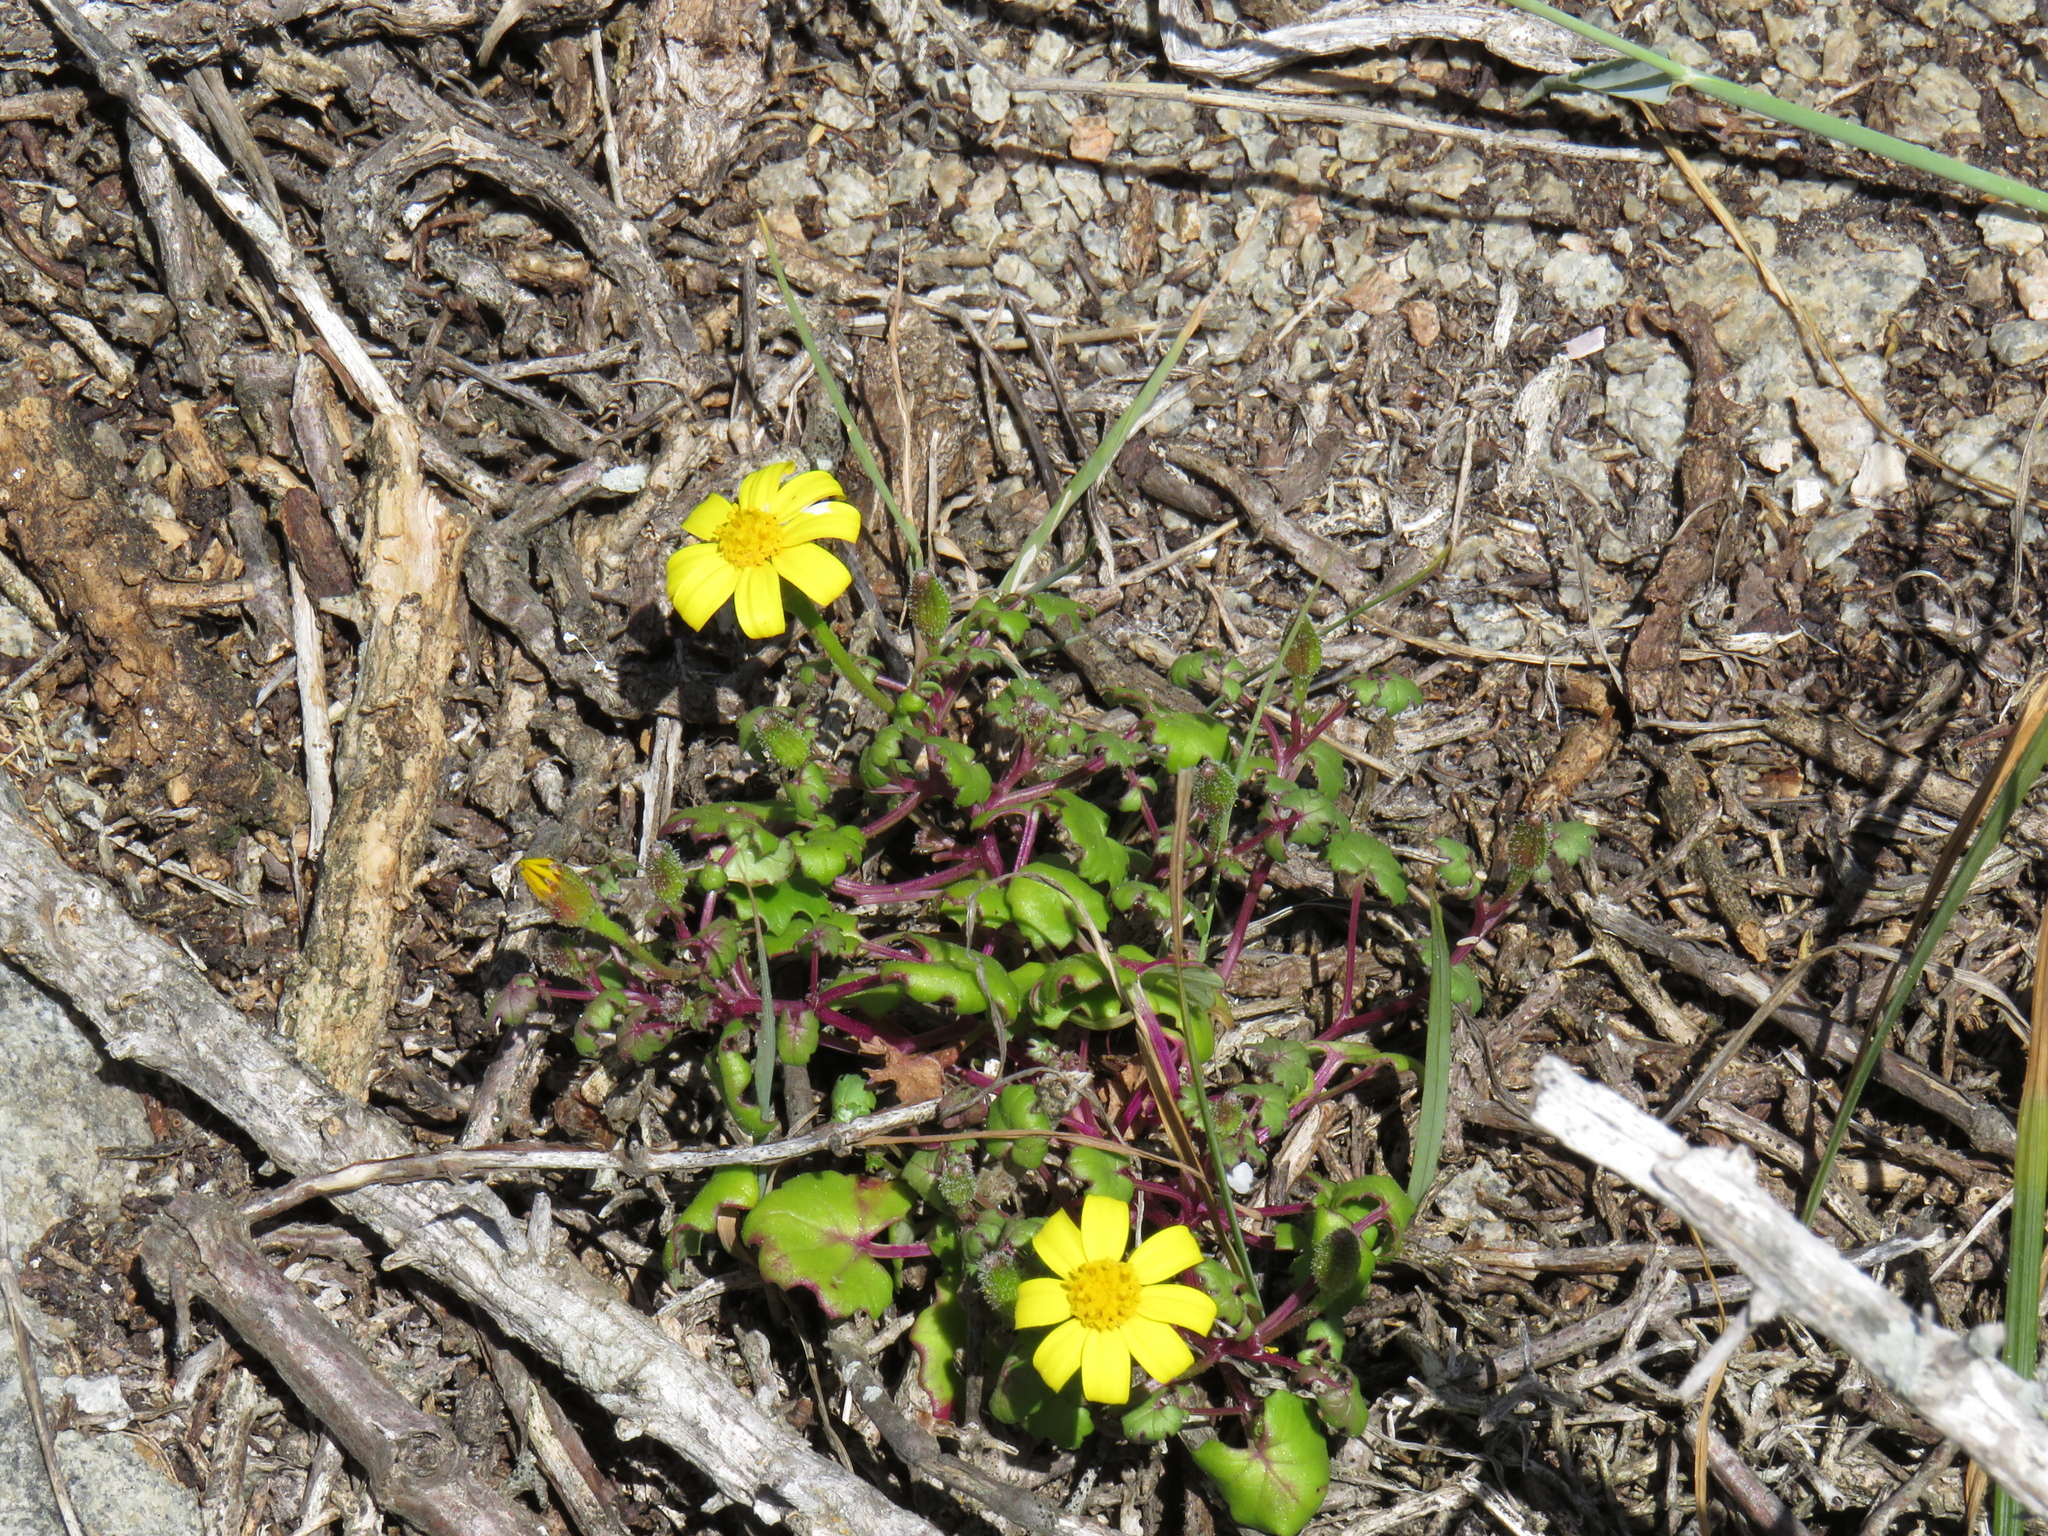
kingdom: Plantae
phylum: Tracheophyta
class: Magnoliopsida
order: Asterales
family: Asteraceae
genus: Cineraria
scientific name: Cineraria angulosa
